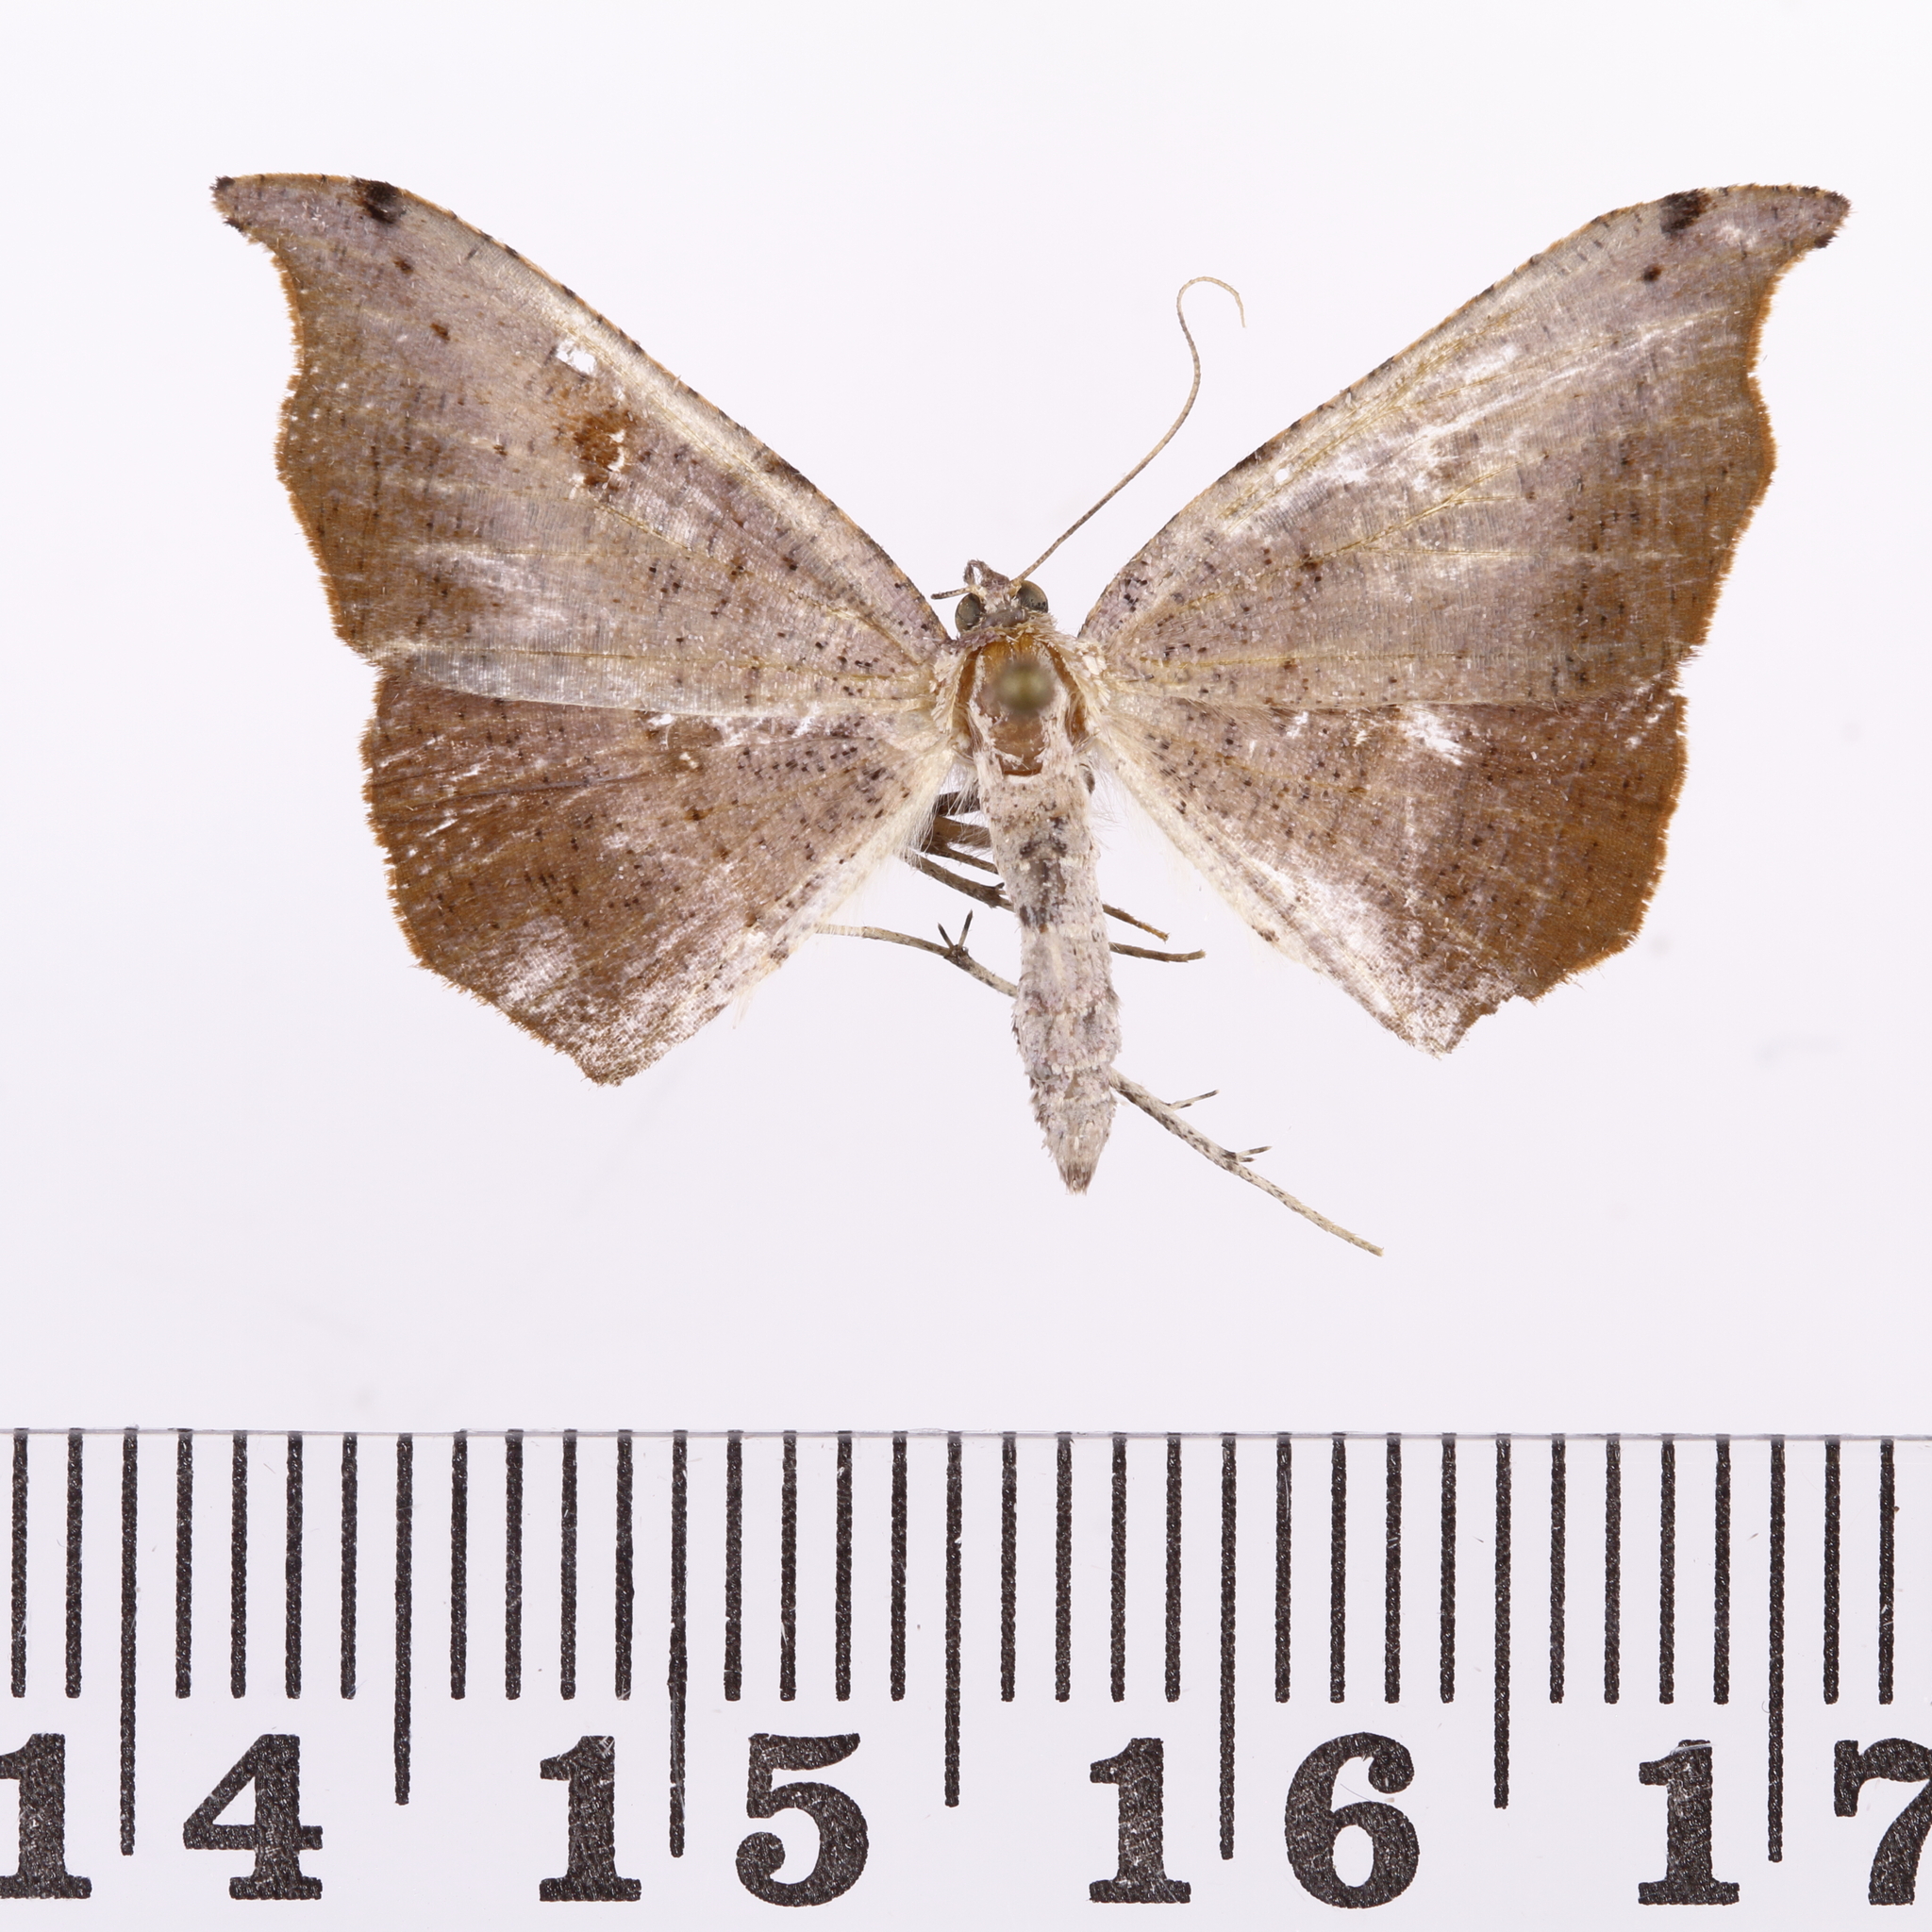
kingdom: Animalia
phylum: Arthropoda
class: Insecta
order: Lepidoptera
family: Geometridae
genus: Sestra
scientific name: Sestra flexata
